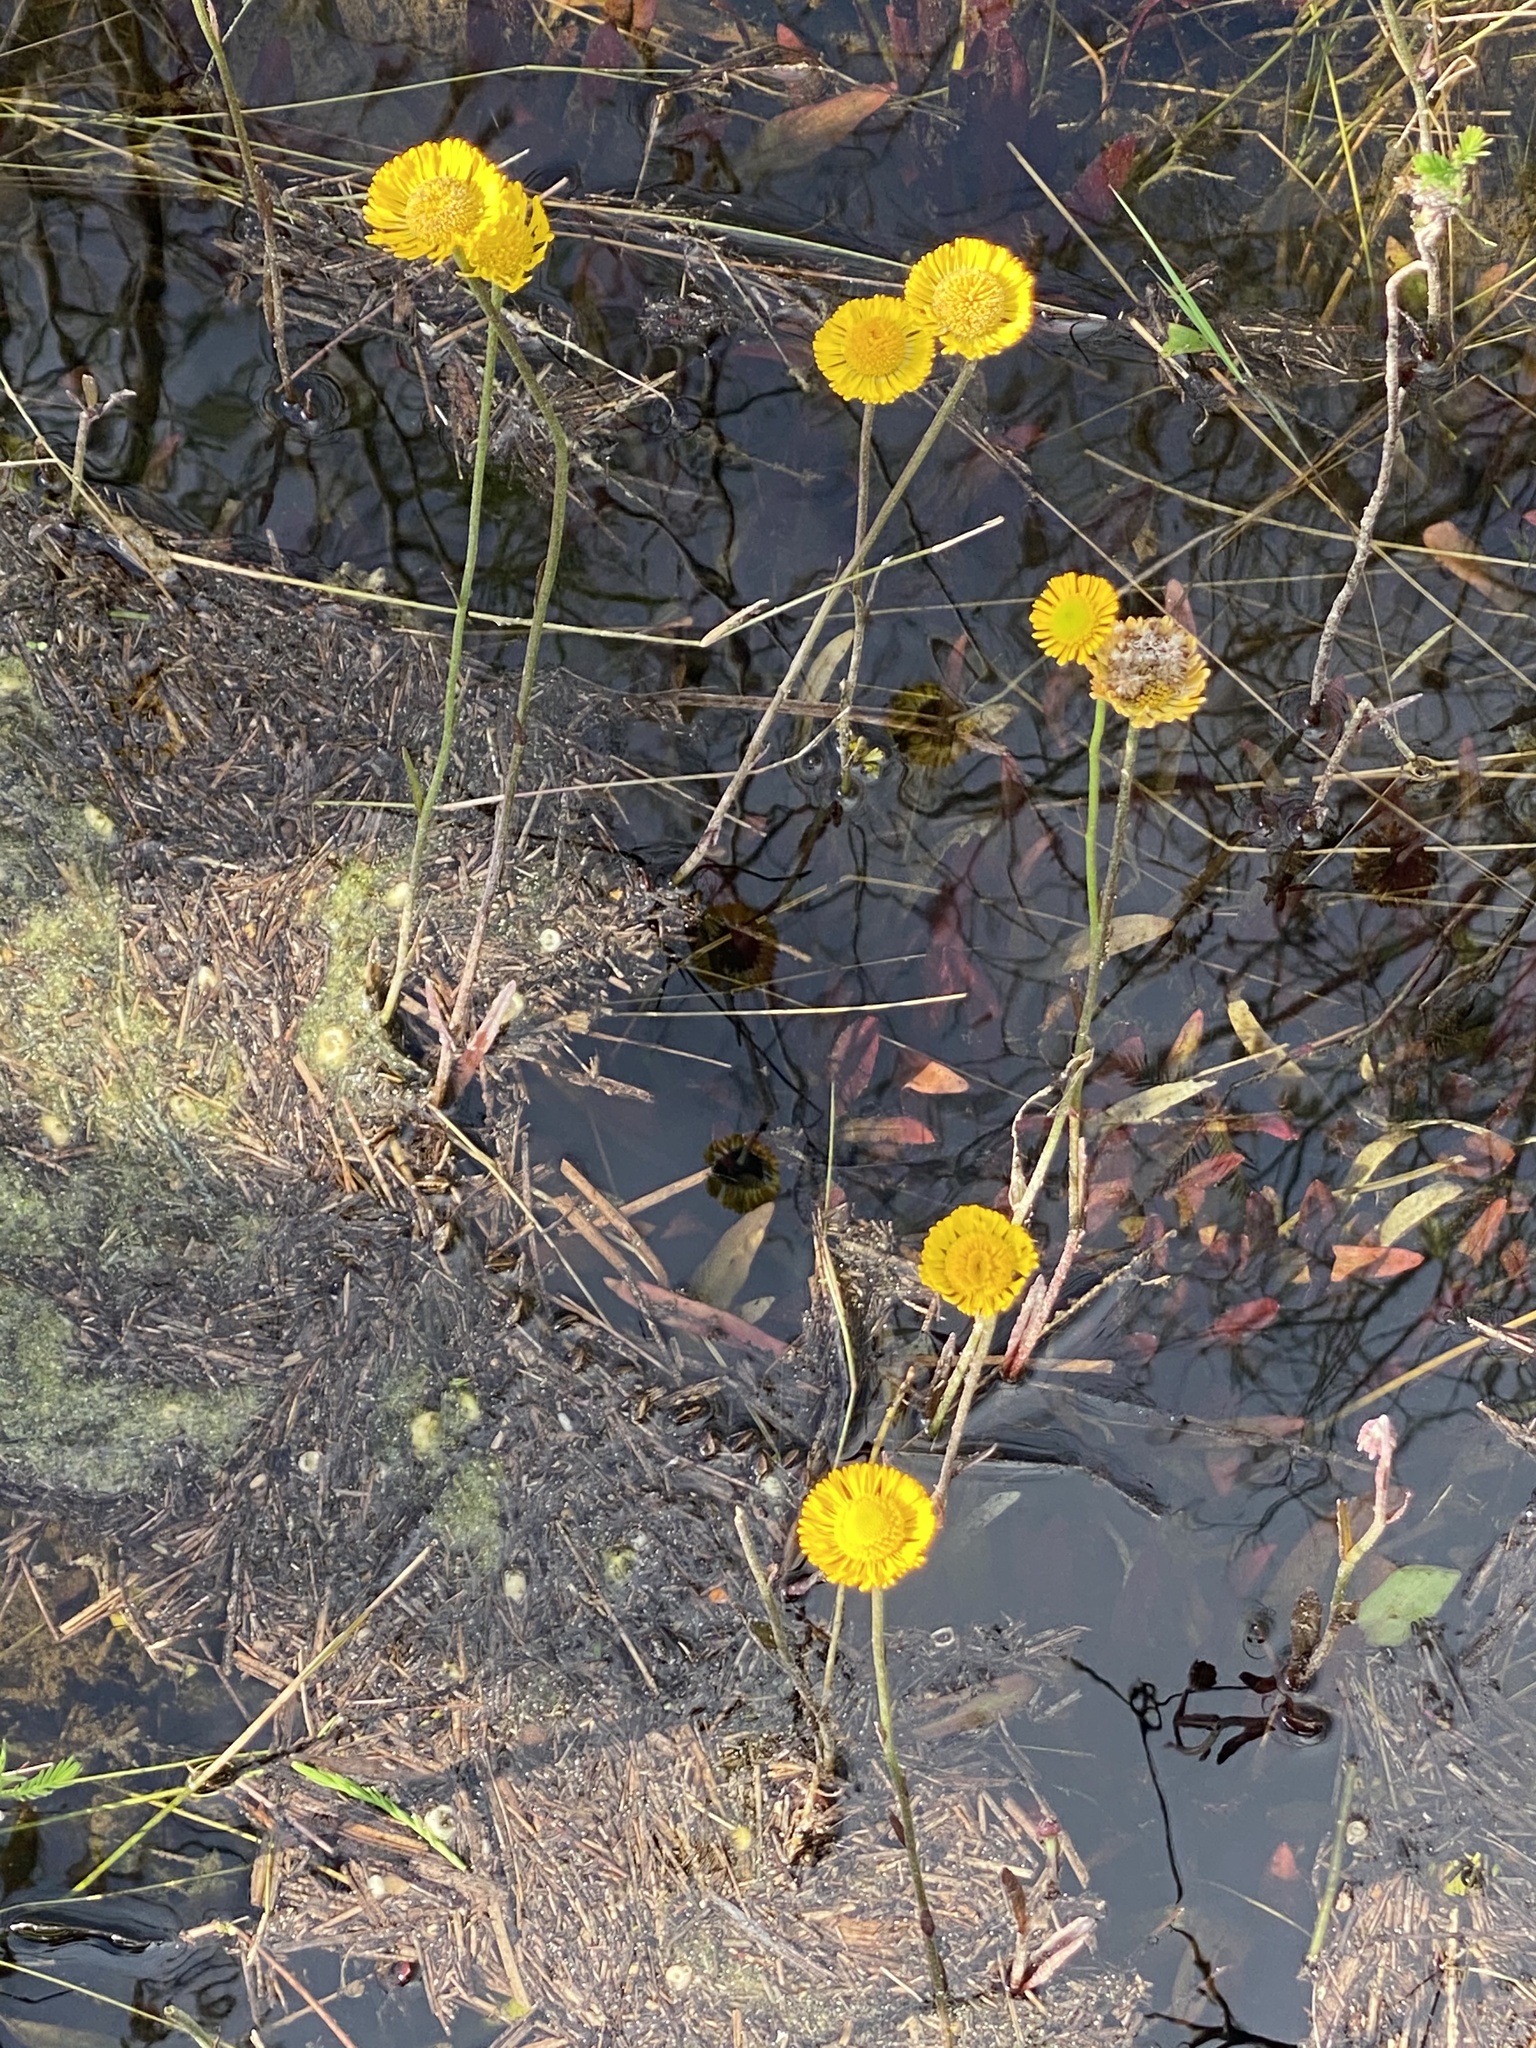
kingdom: Plantae
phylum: Tracheophyta
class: Magnoliopsida
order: Asterales
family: Asteraceae
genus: Helenium
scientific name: Helenium pinnatifidum
